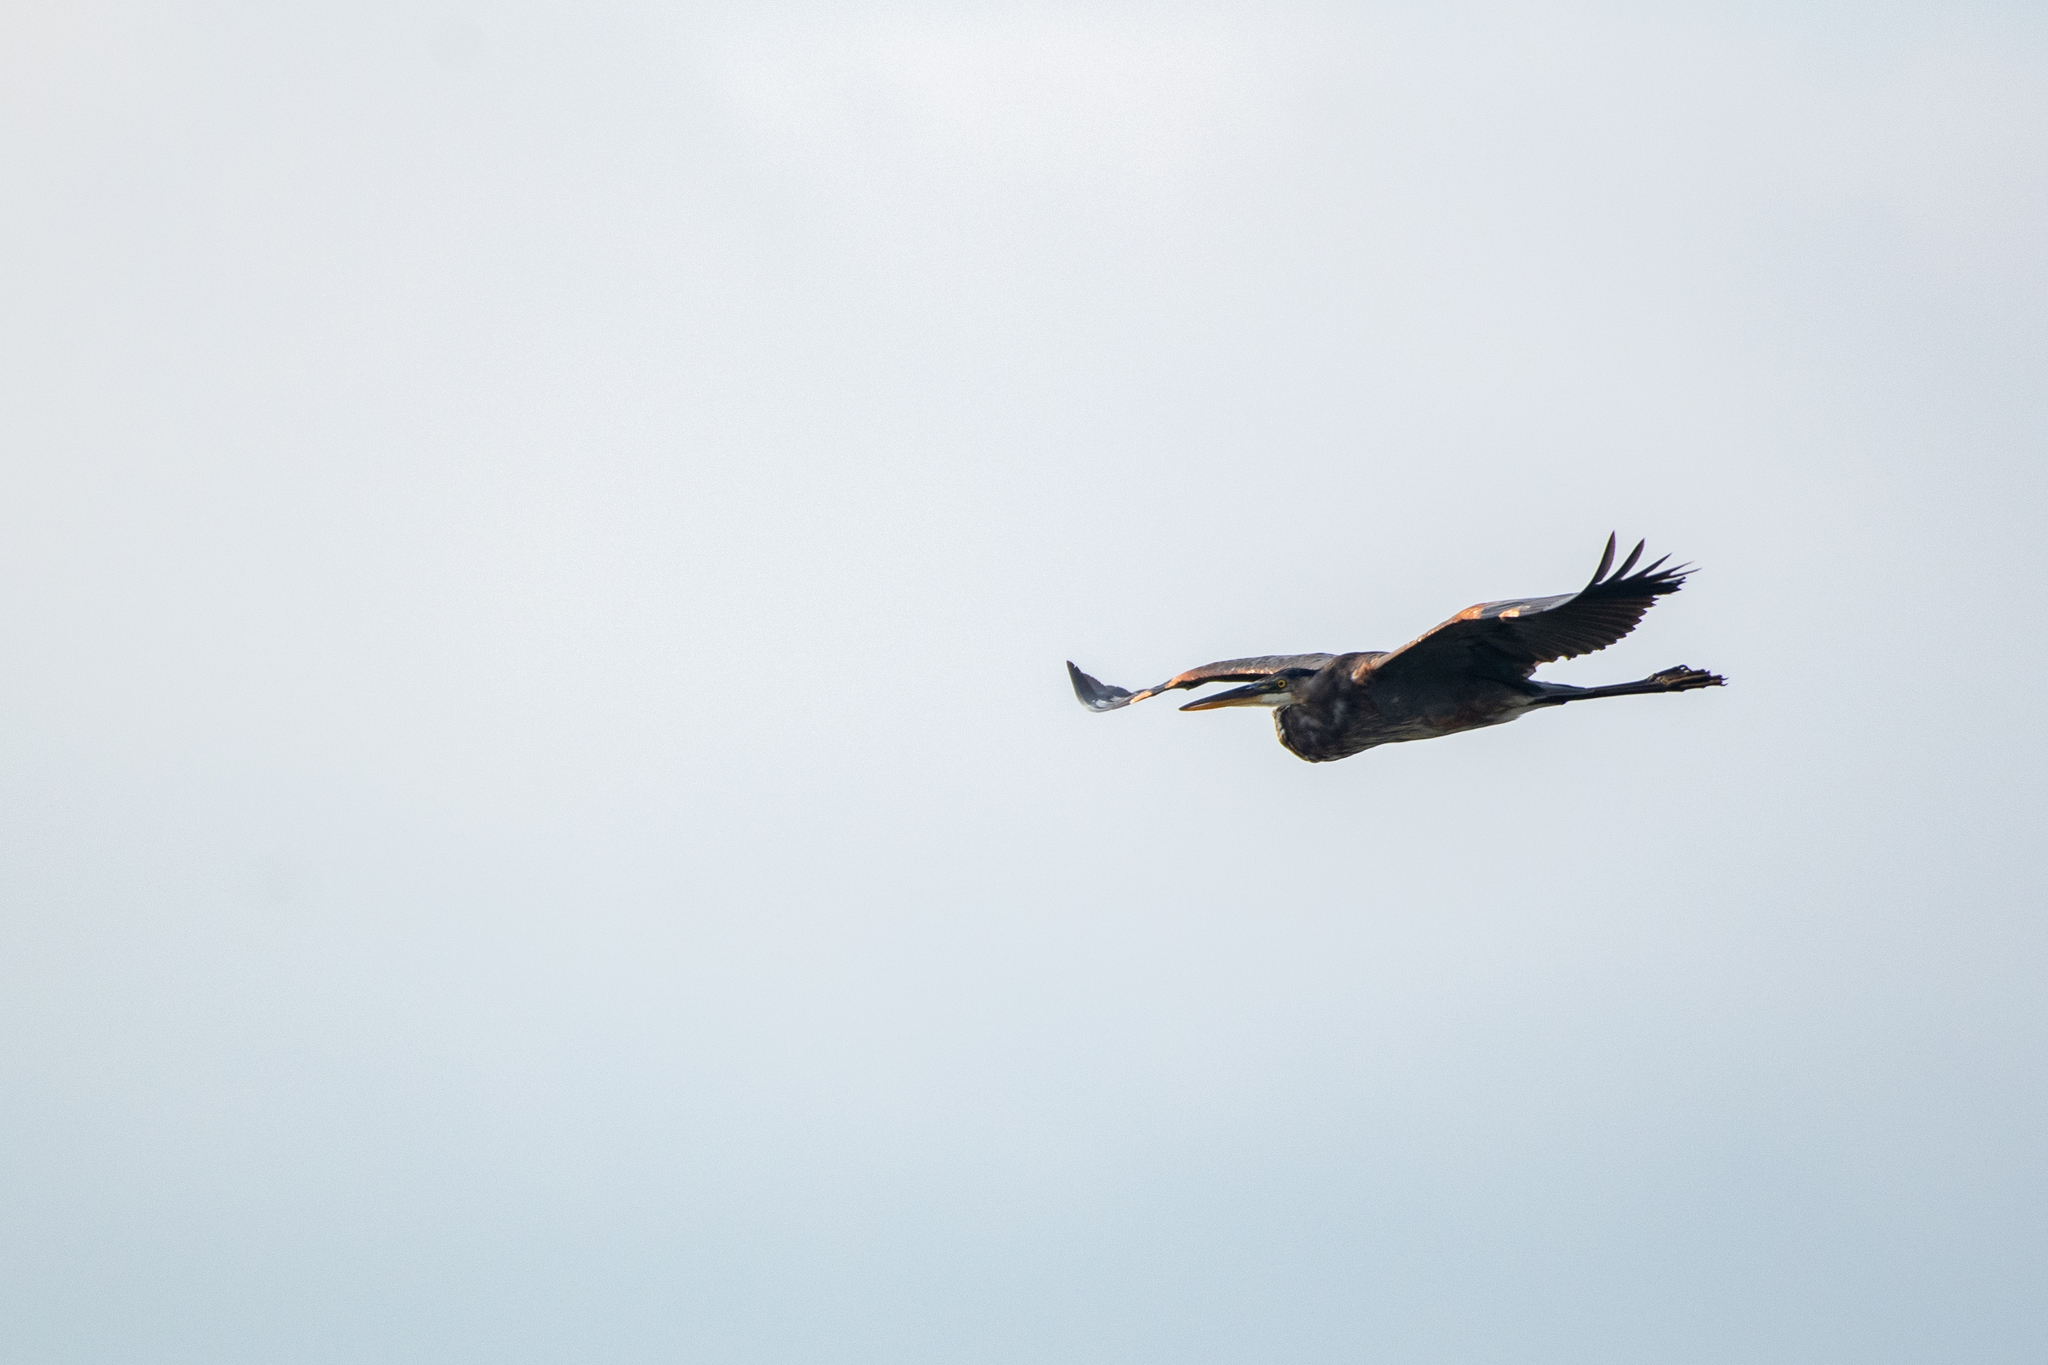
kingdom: Animalia
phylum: Chordata
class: Aves
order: Pelecaniformes
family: Ardeidae
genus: Ardea
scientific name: Ardea herodias
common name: Great blue heron
